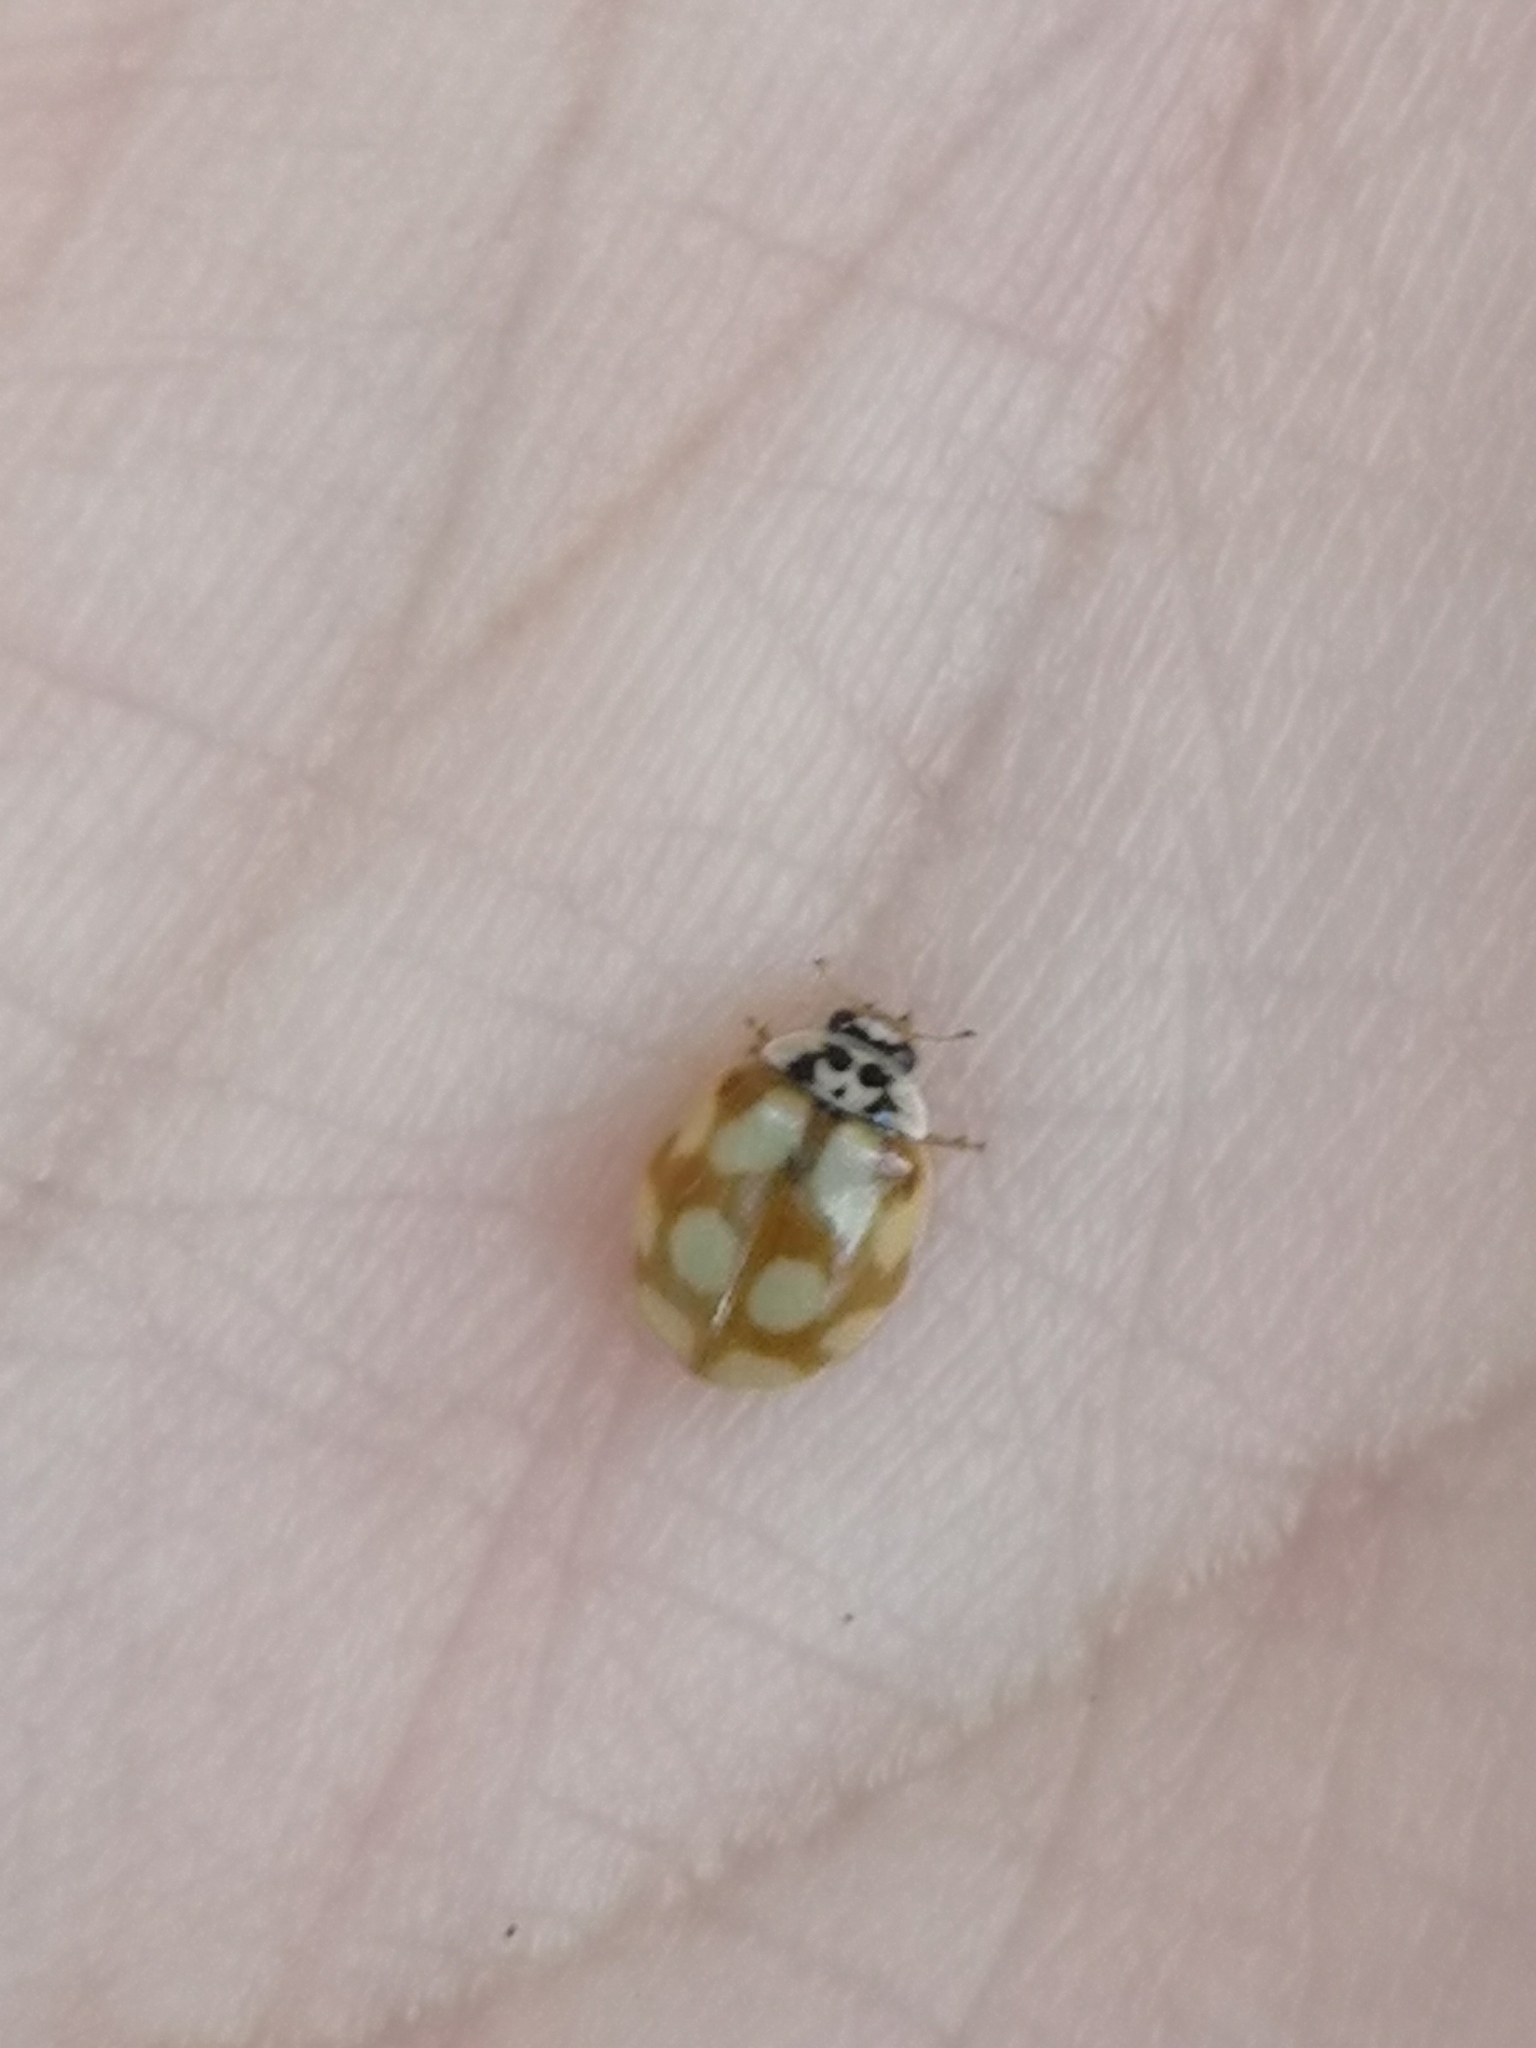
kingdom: Animalia
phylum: Arthropoda
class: Insecta
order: Coleoptera
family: Coccinellidae
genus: Adalia
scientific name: Adalia decempunctata
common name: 10-spot ladybird
